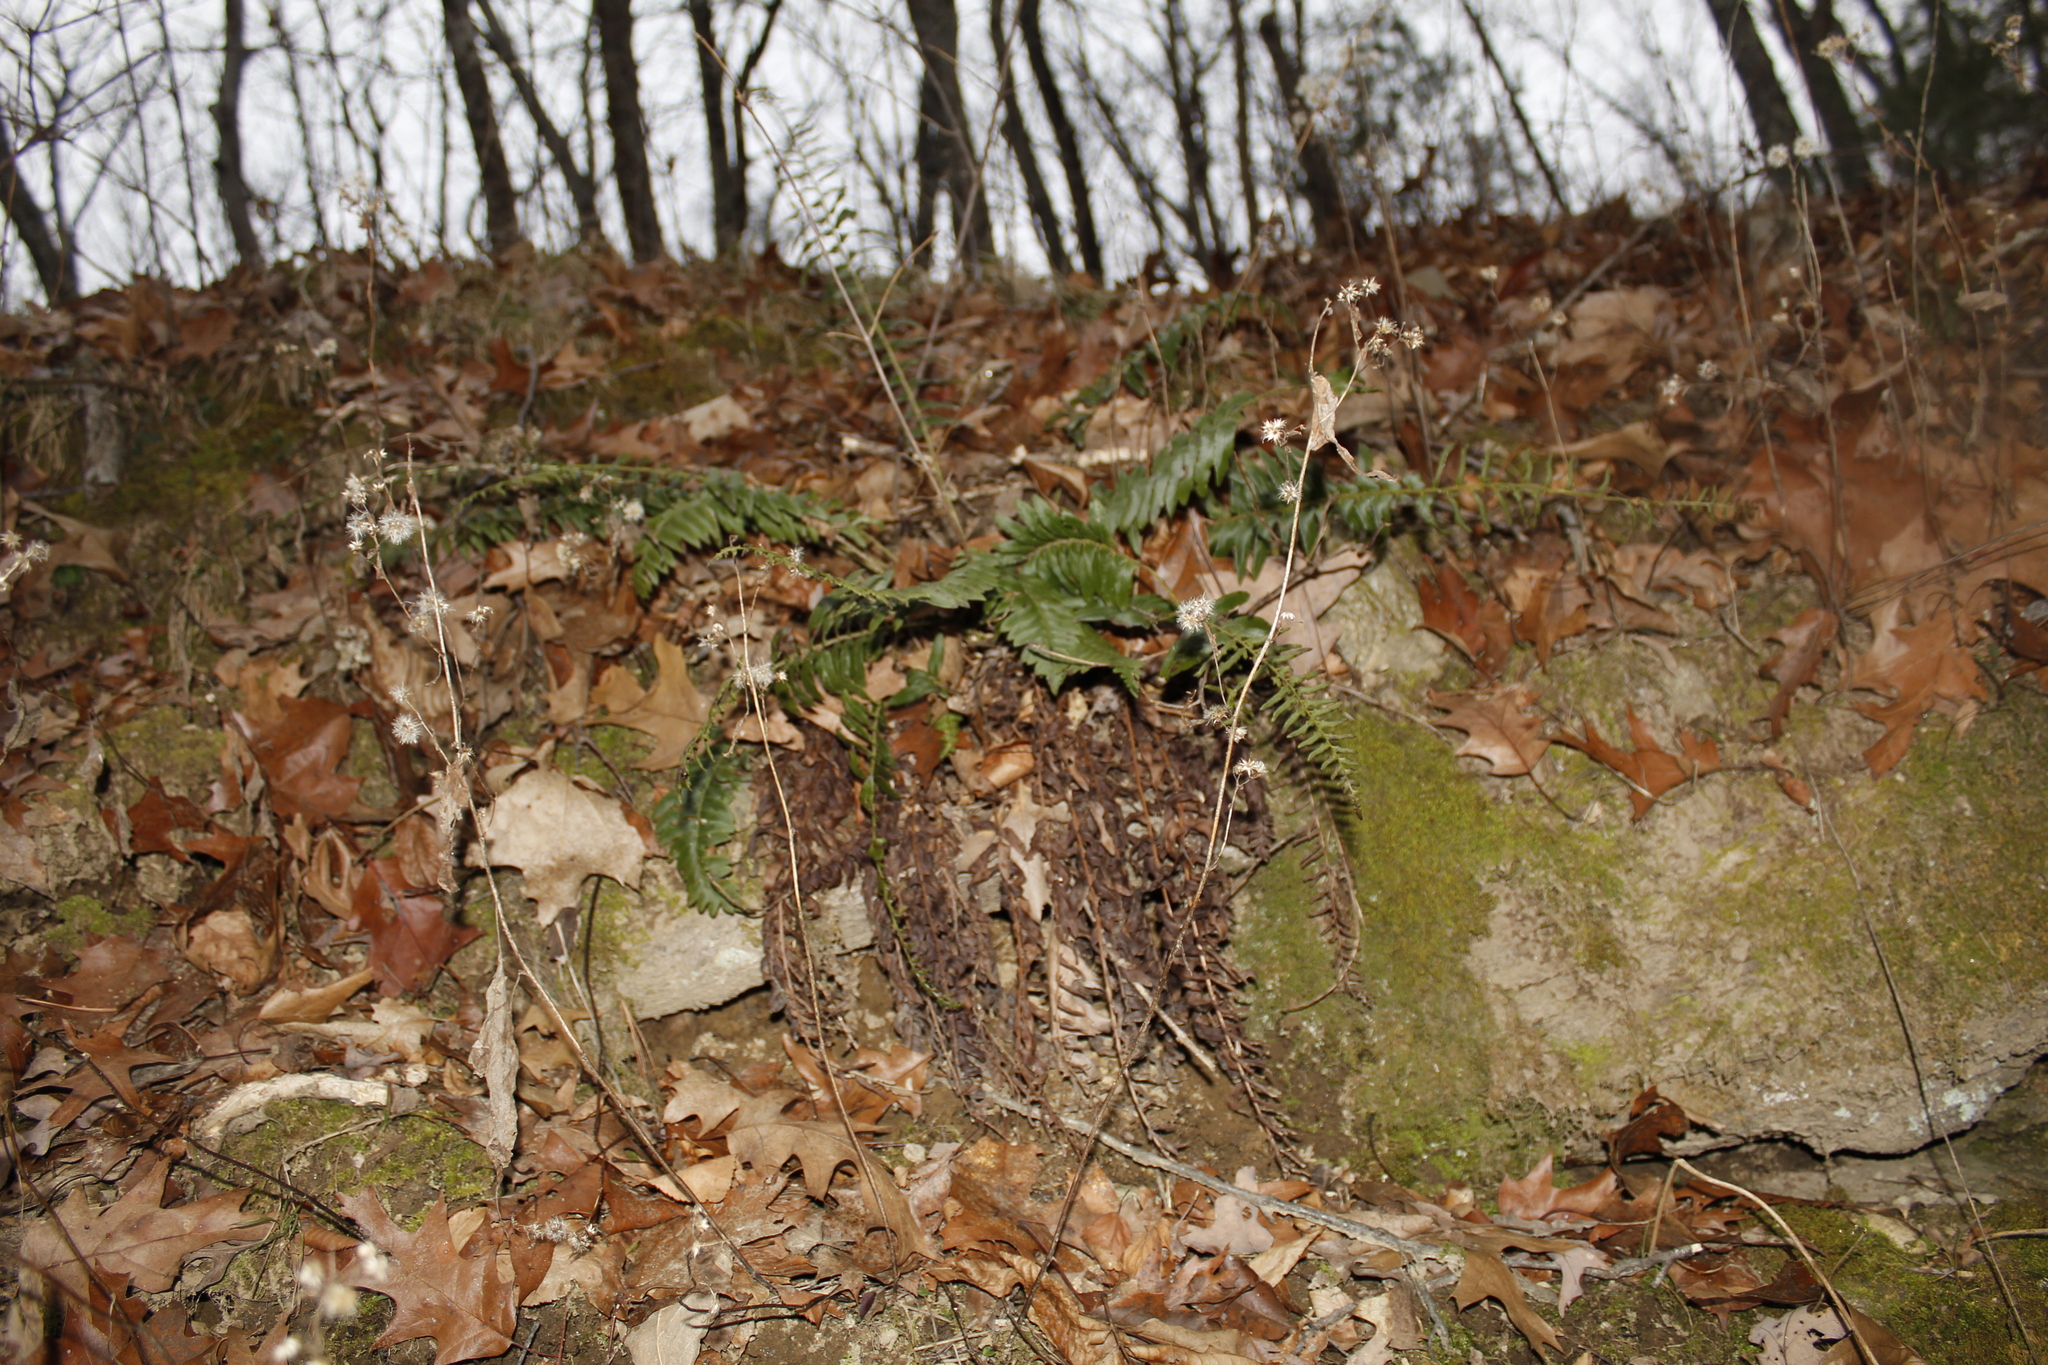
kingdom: Plantae
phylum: Tracheophyta
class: Polypodiopsida
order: Polypodiales
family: Dryopteridaceae
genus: Polystichum
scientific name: Polystichum acrostichoides
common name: Christmas fern
